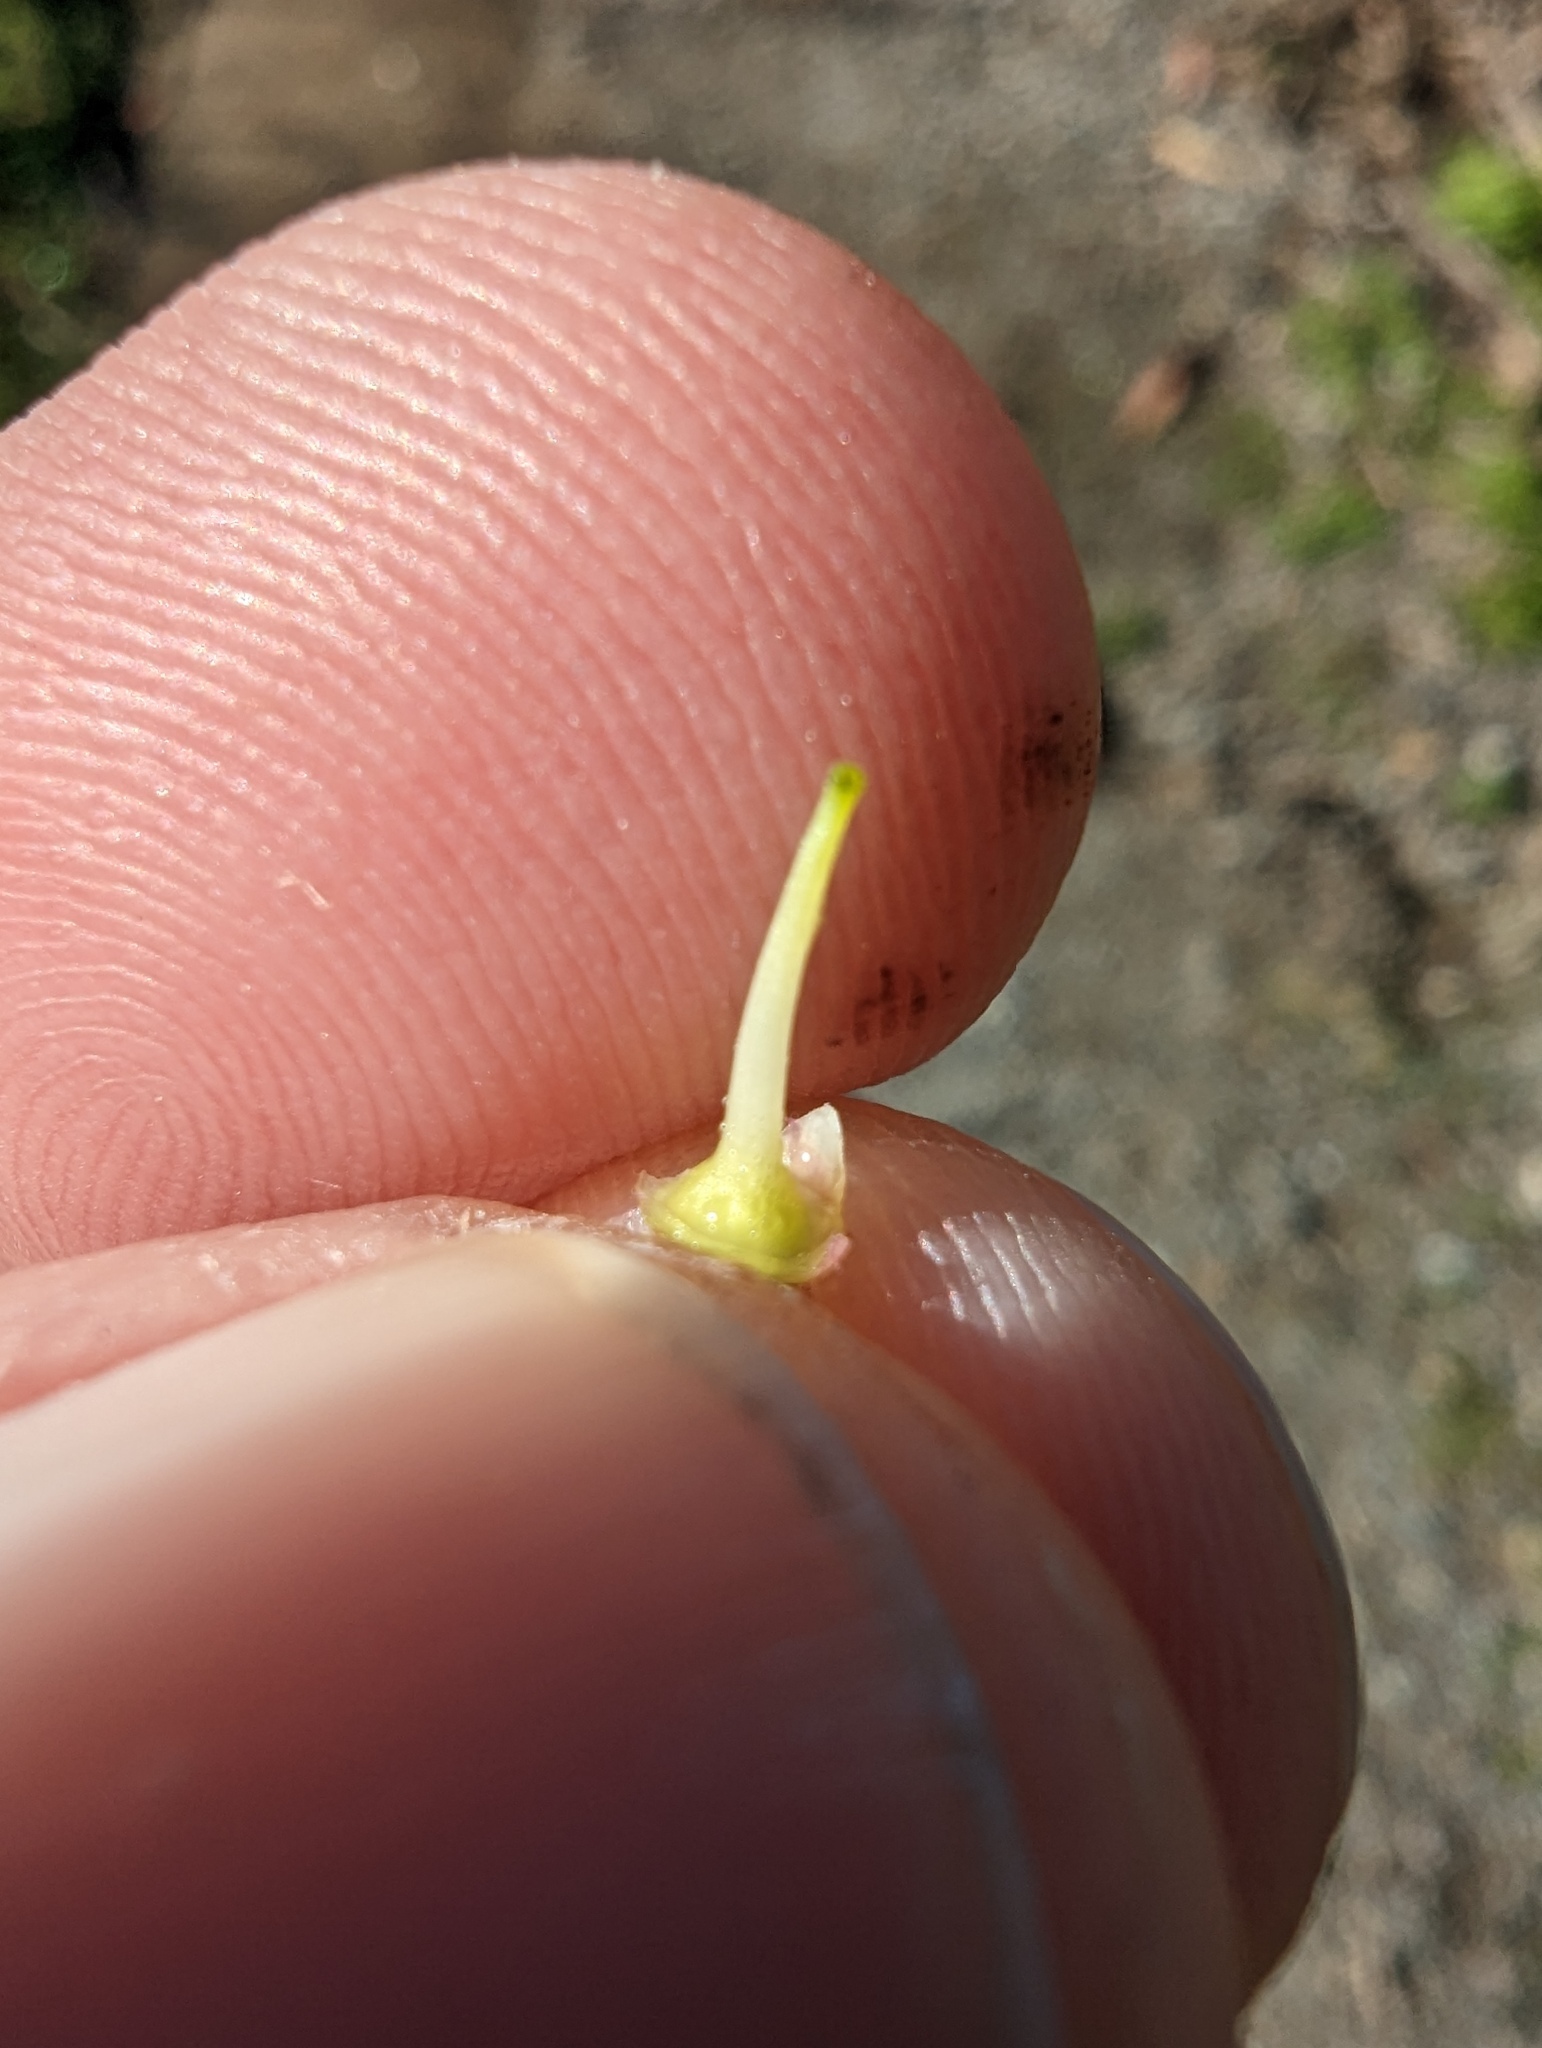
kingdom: Plantae
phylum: Tracheophyta
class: Magnoliopsida
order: Saxifragales
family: Grossulariaceae
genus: Ribes
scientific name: Ribes sanguineum
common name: Flowering currant
